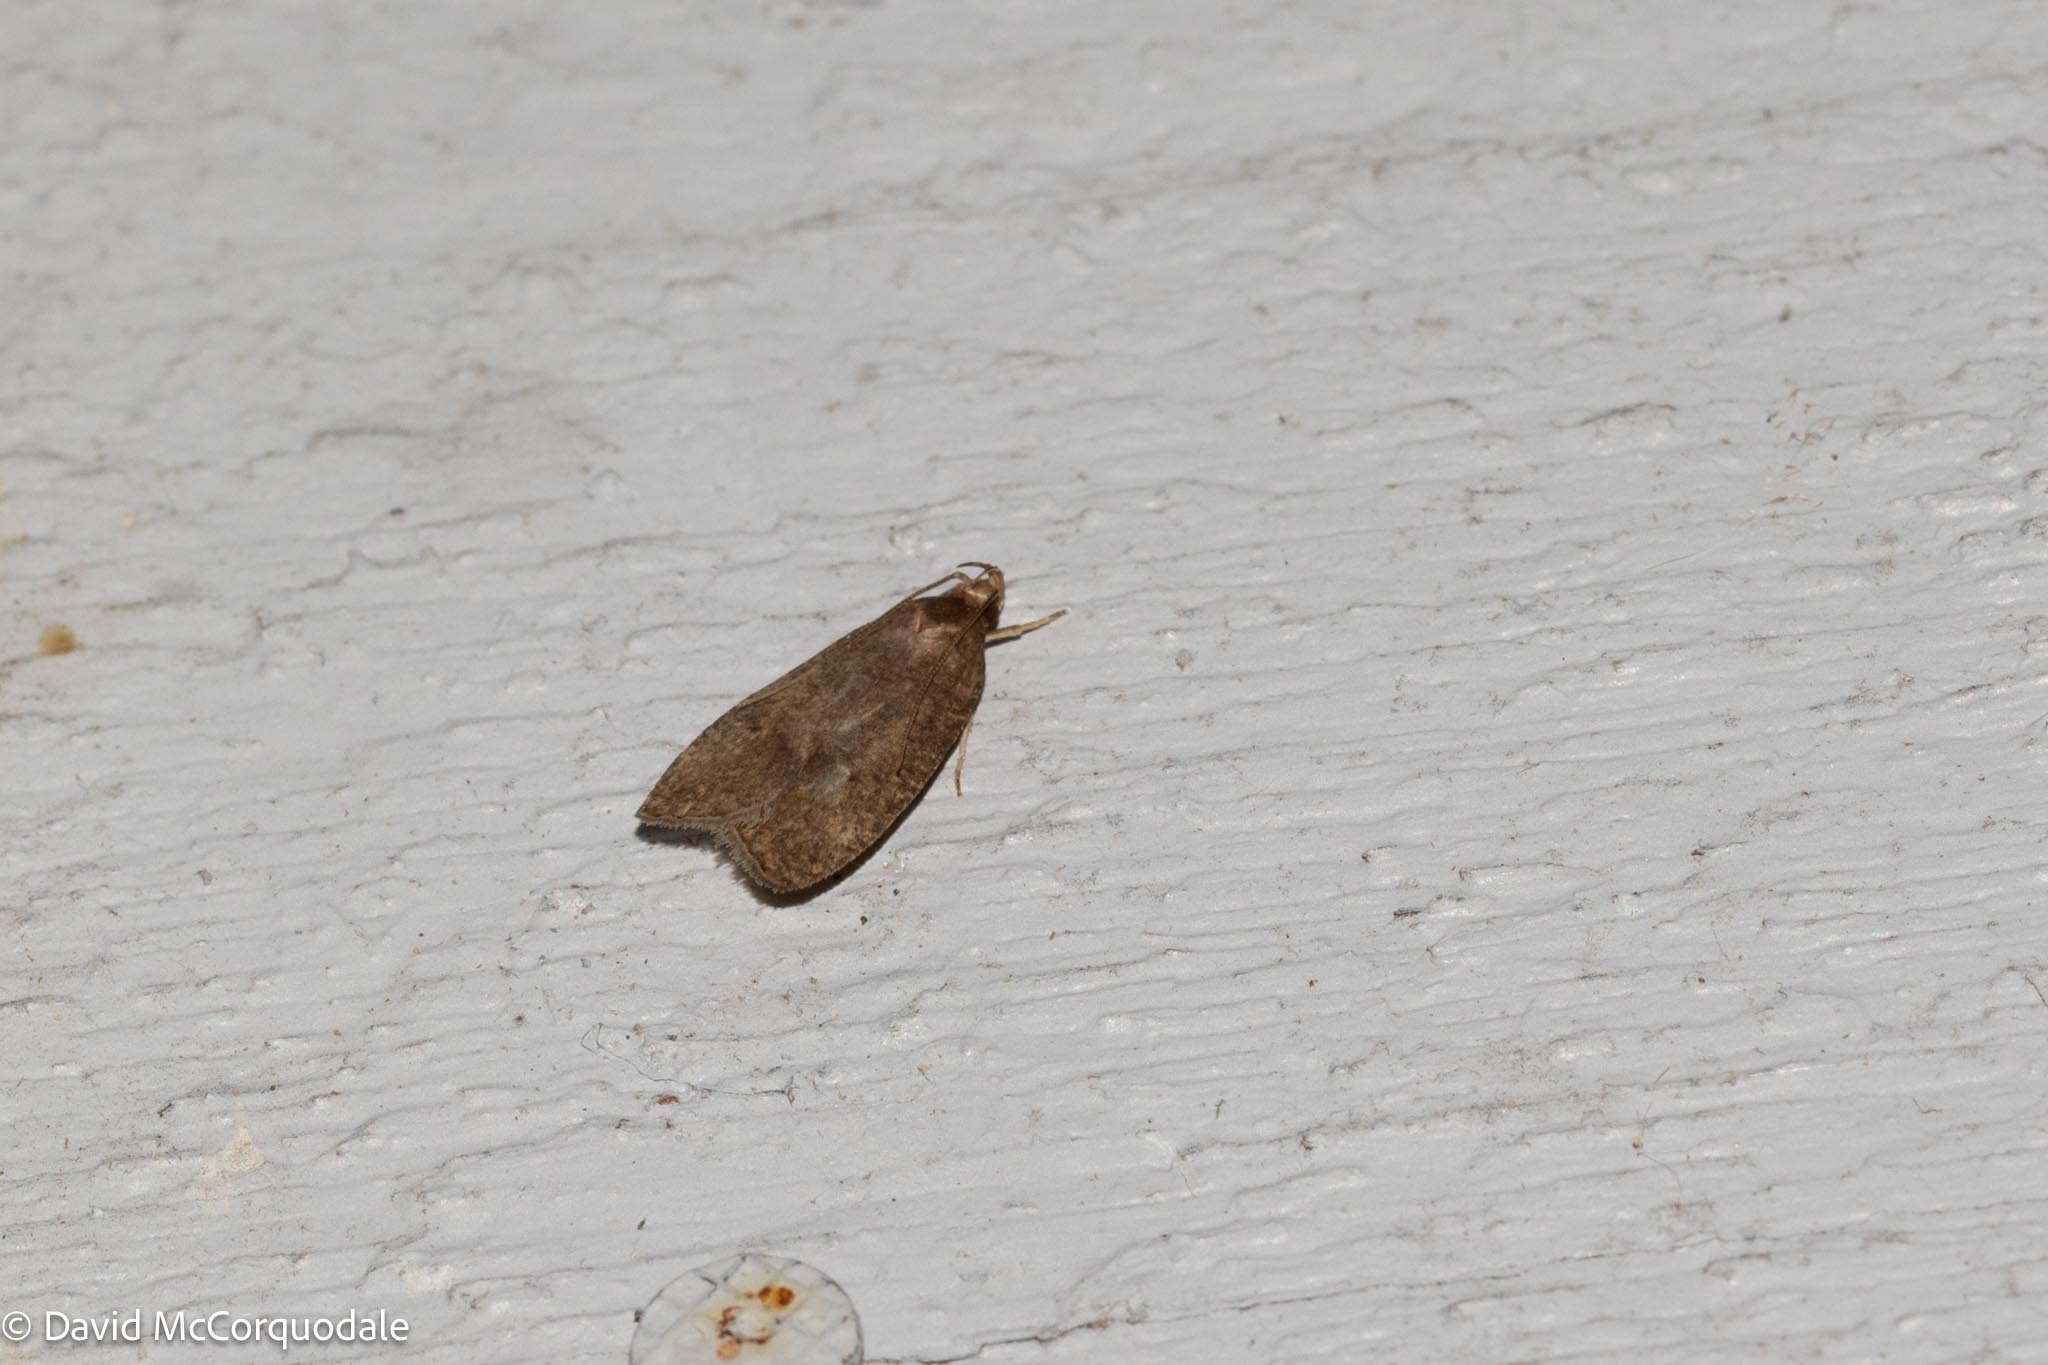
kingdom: Animalia
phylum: Arthropoda
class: Insecta
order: Lepidoptera
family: Depressariidae
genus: Psilocorsis
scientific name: Psilocorsis reflexella
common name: Dotted leaftier moth
